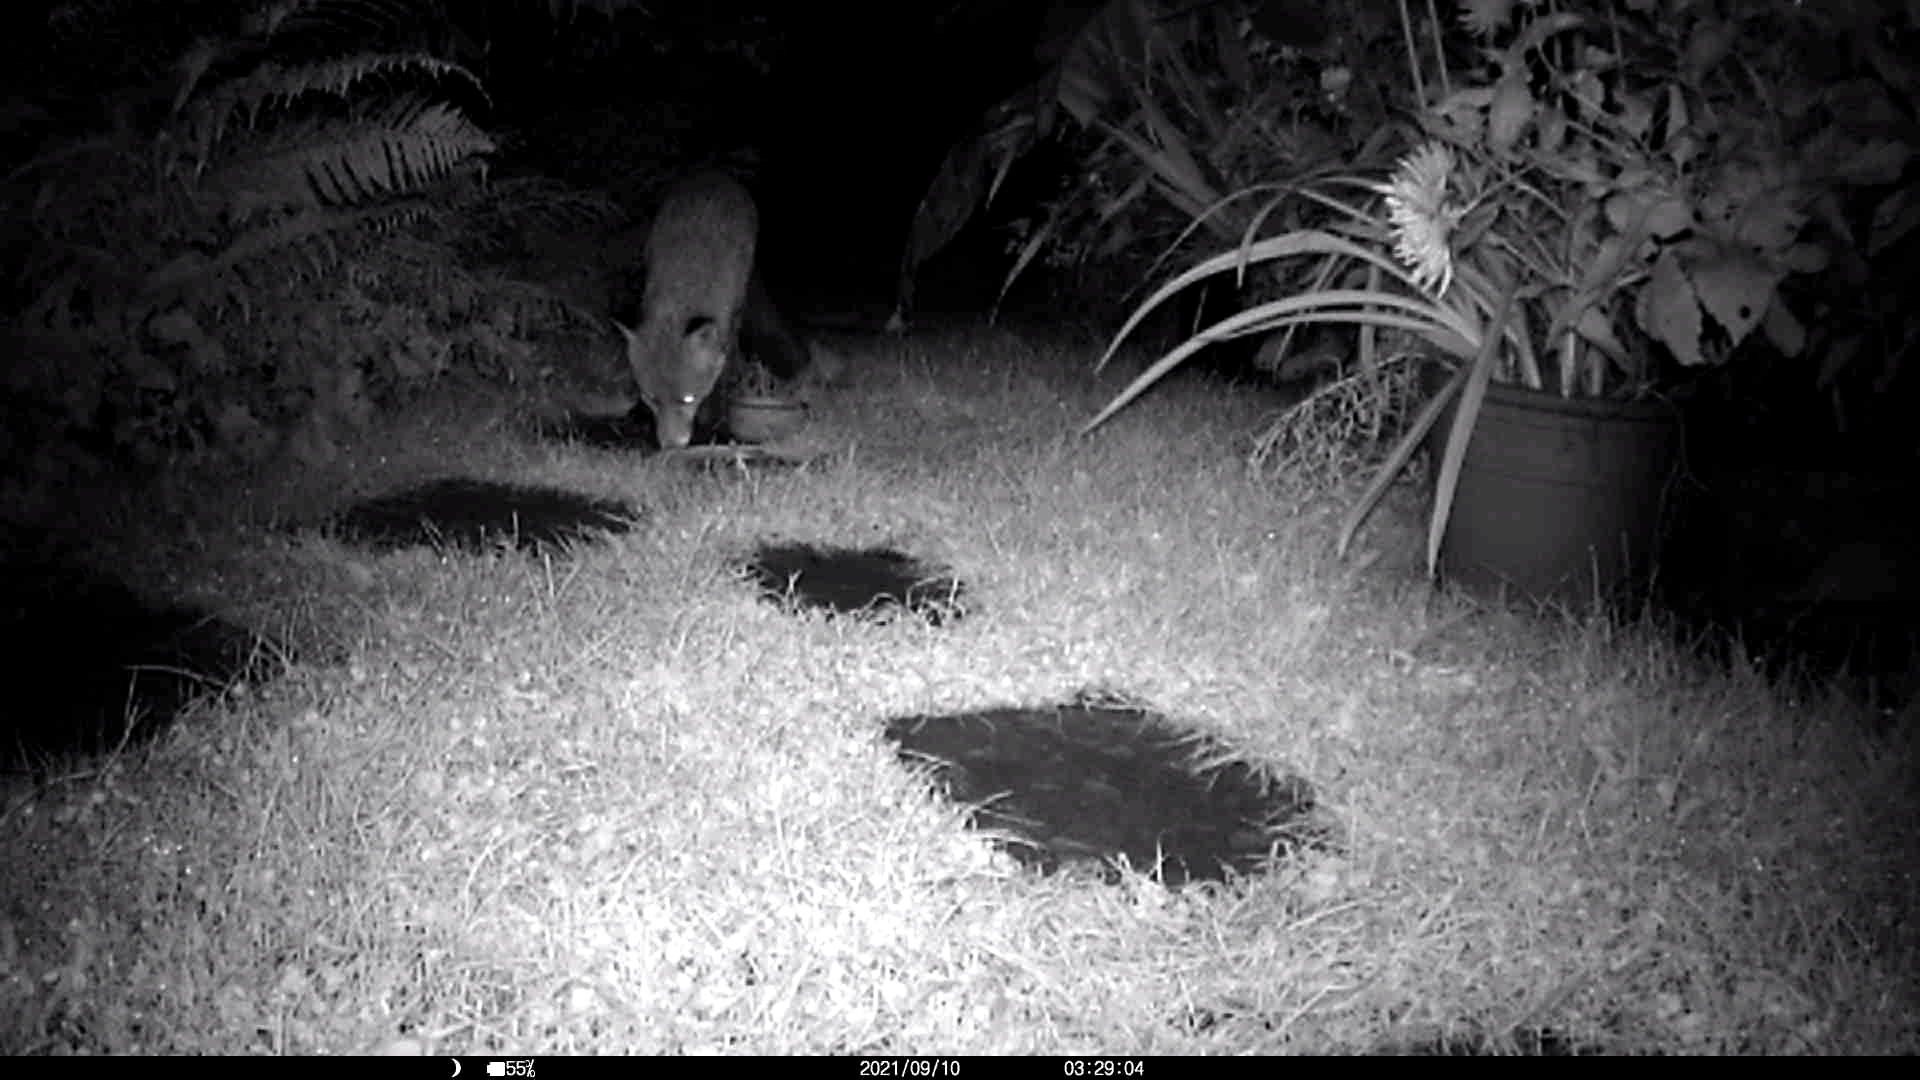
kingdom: Animalia
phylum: Chordata
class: Mammalia
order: Carnivora
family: Canidae
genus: Vulpes
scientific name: Vulpes vulpes
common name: Red fox
